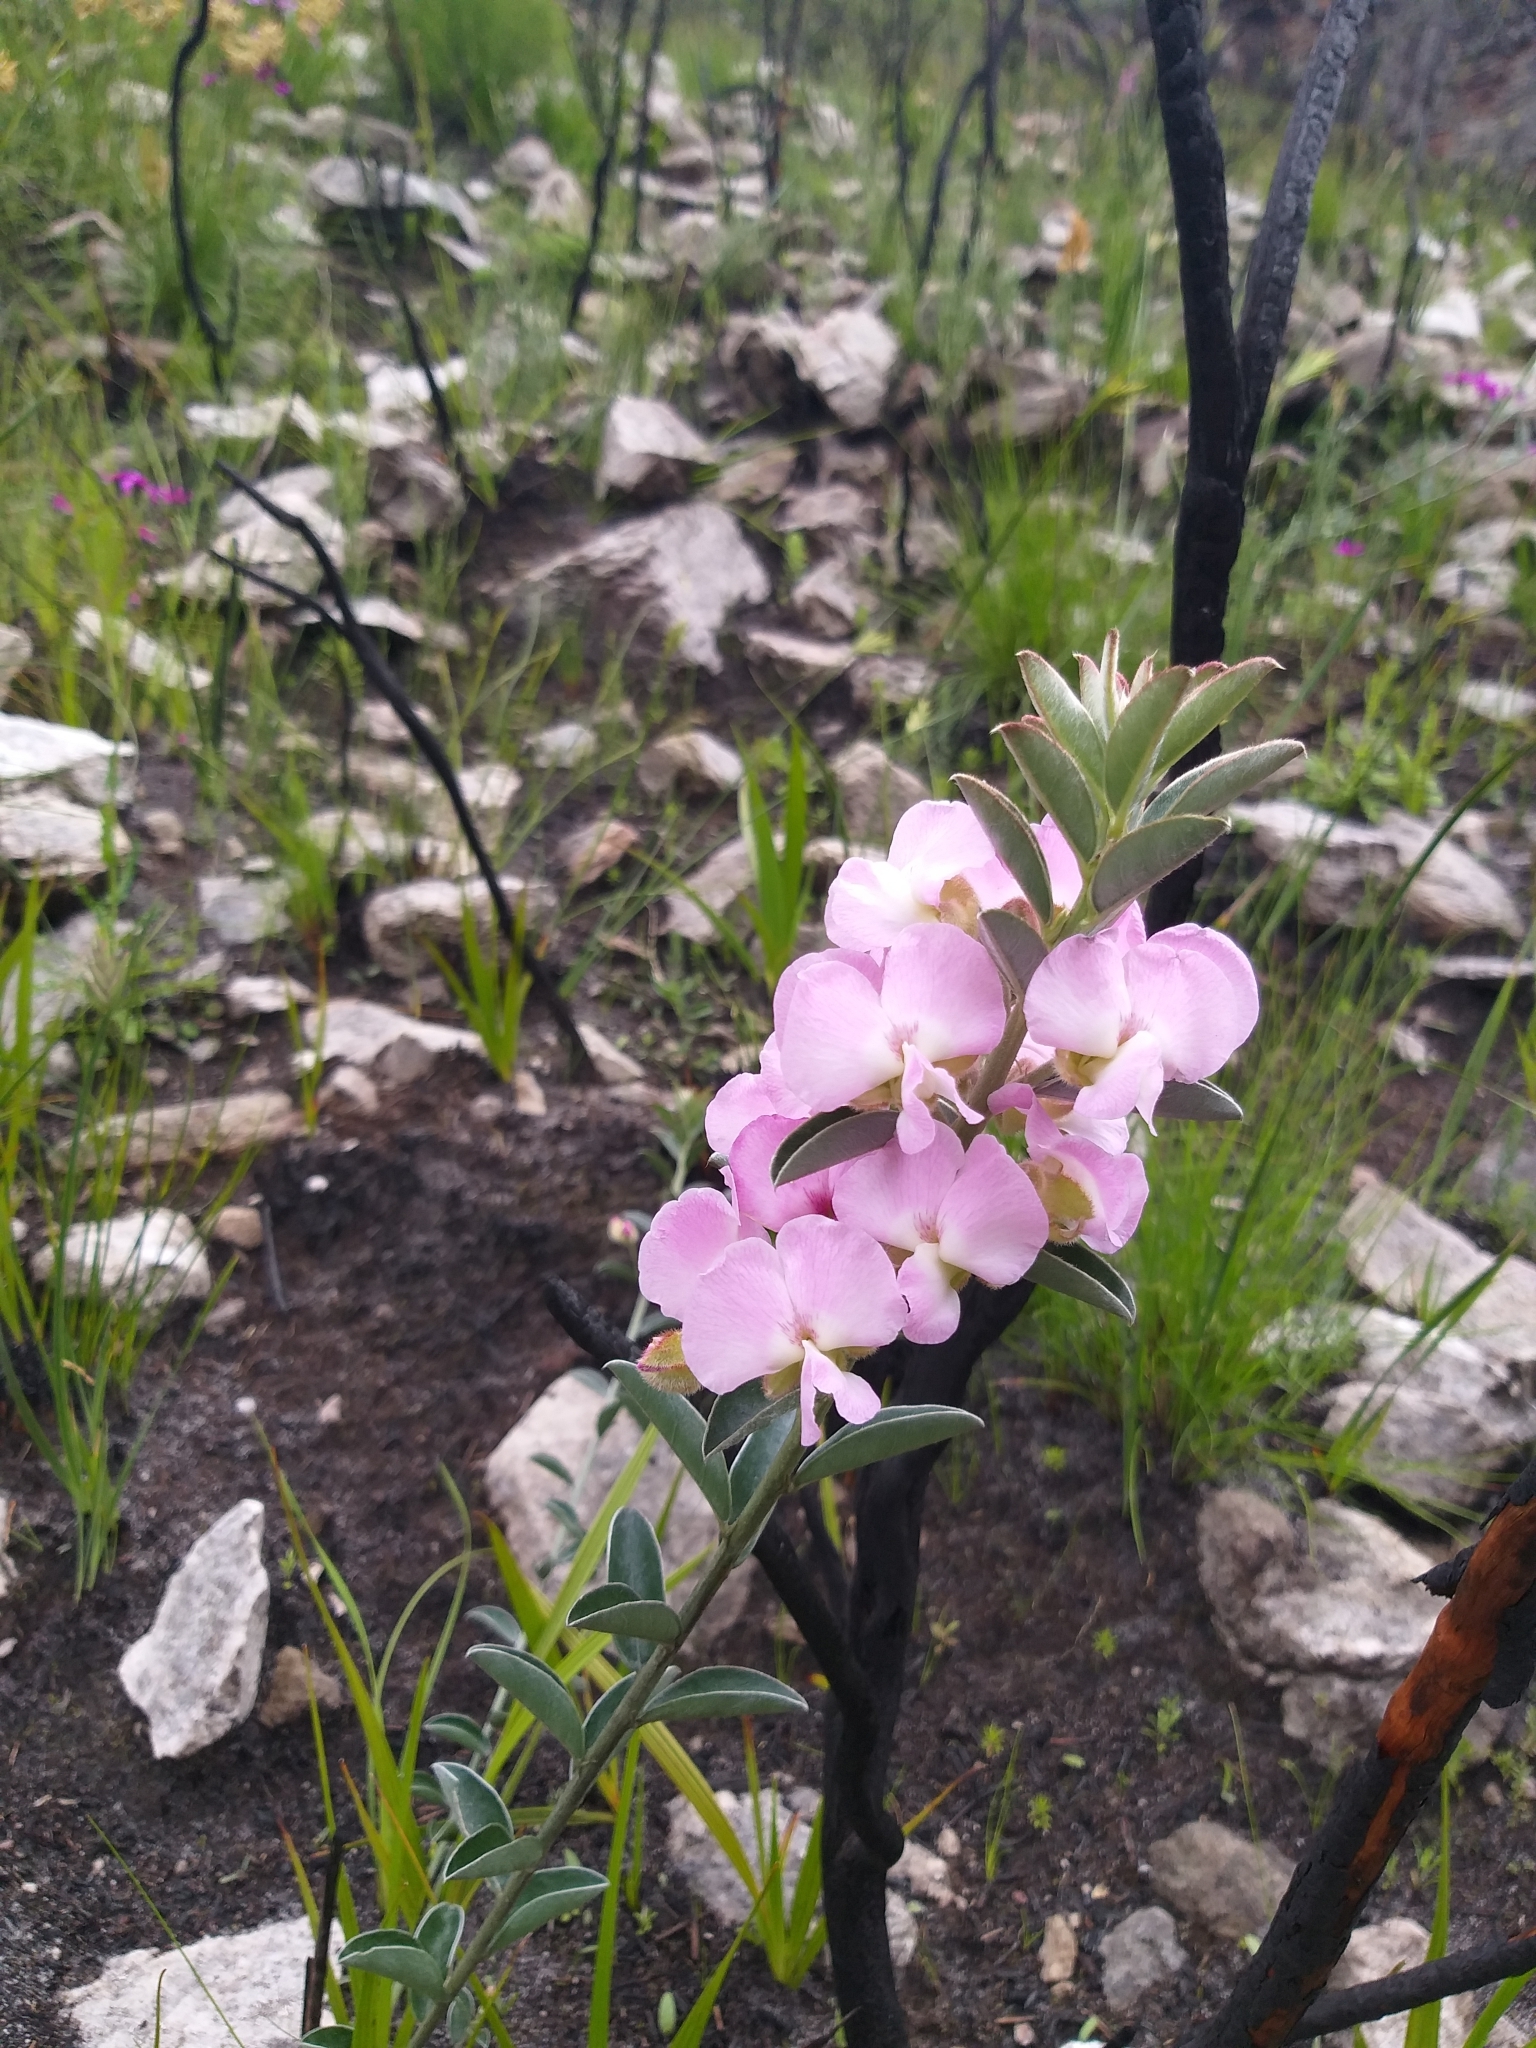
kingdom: Plantae
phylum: Tracheophyta
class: Magnoliopsida
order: Fabales
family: Fabaceae
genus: Podalyria
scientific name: Podalyria variabilis
